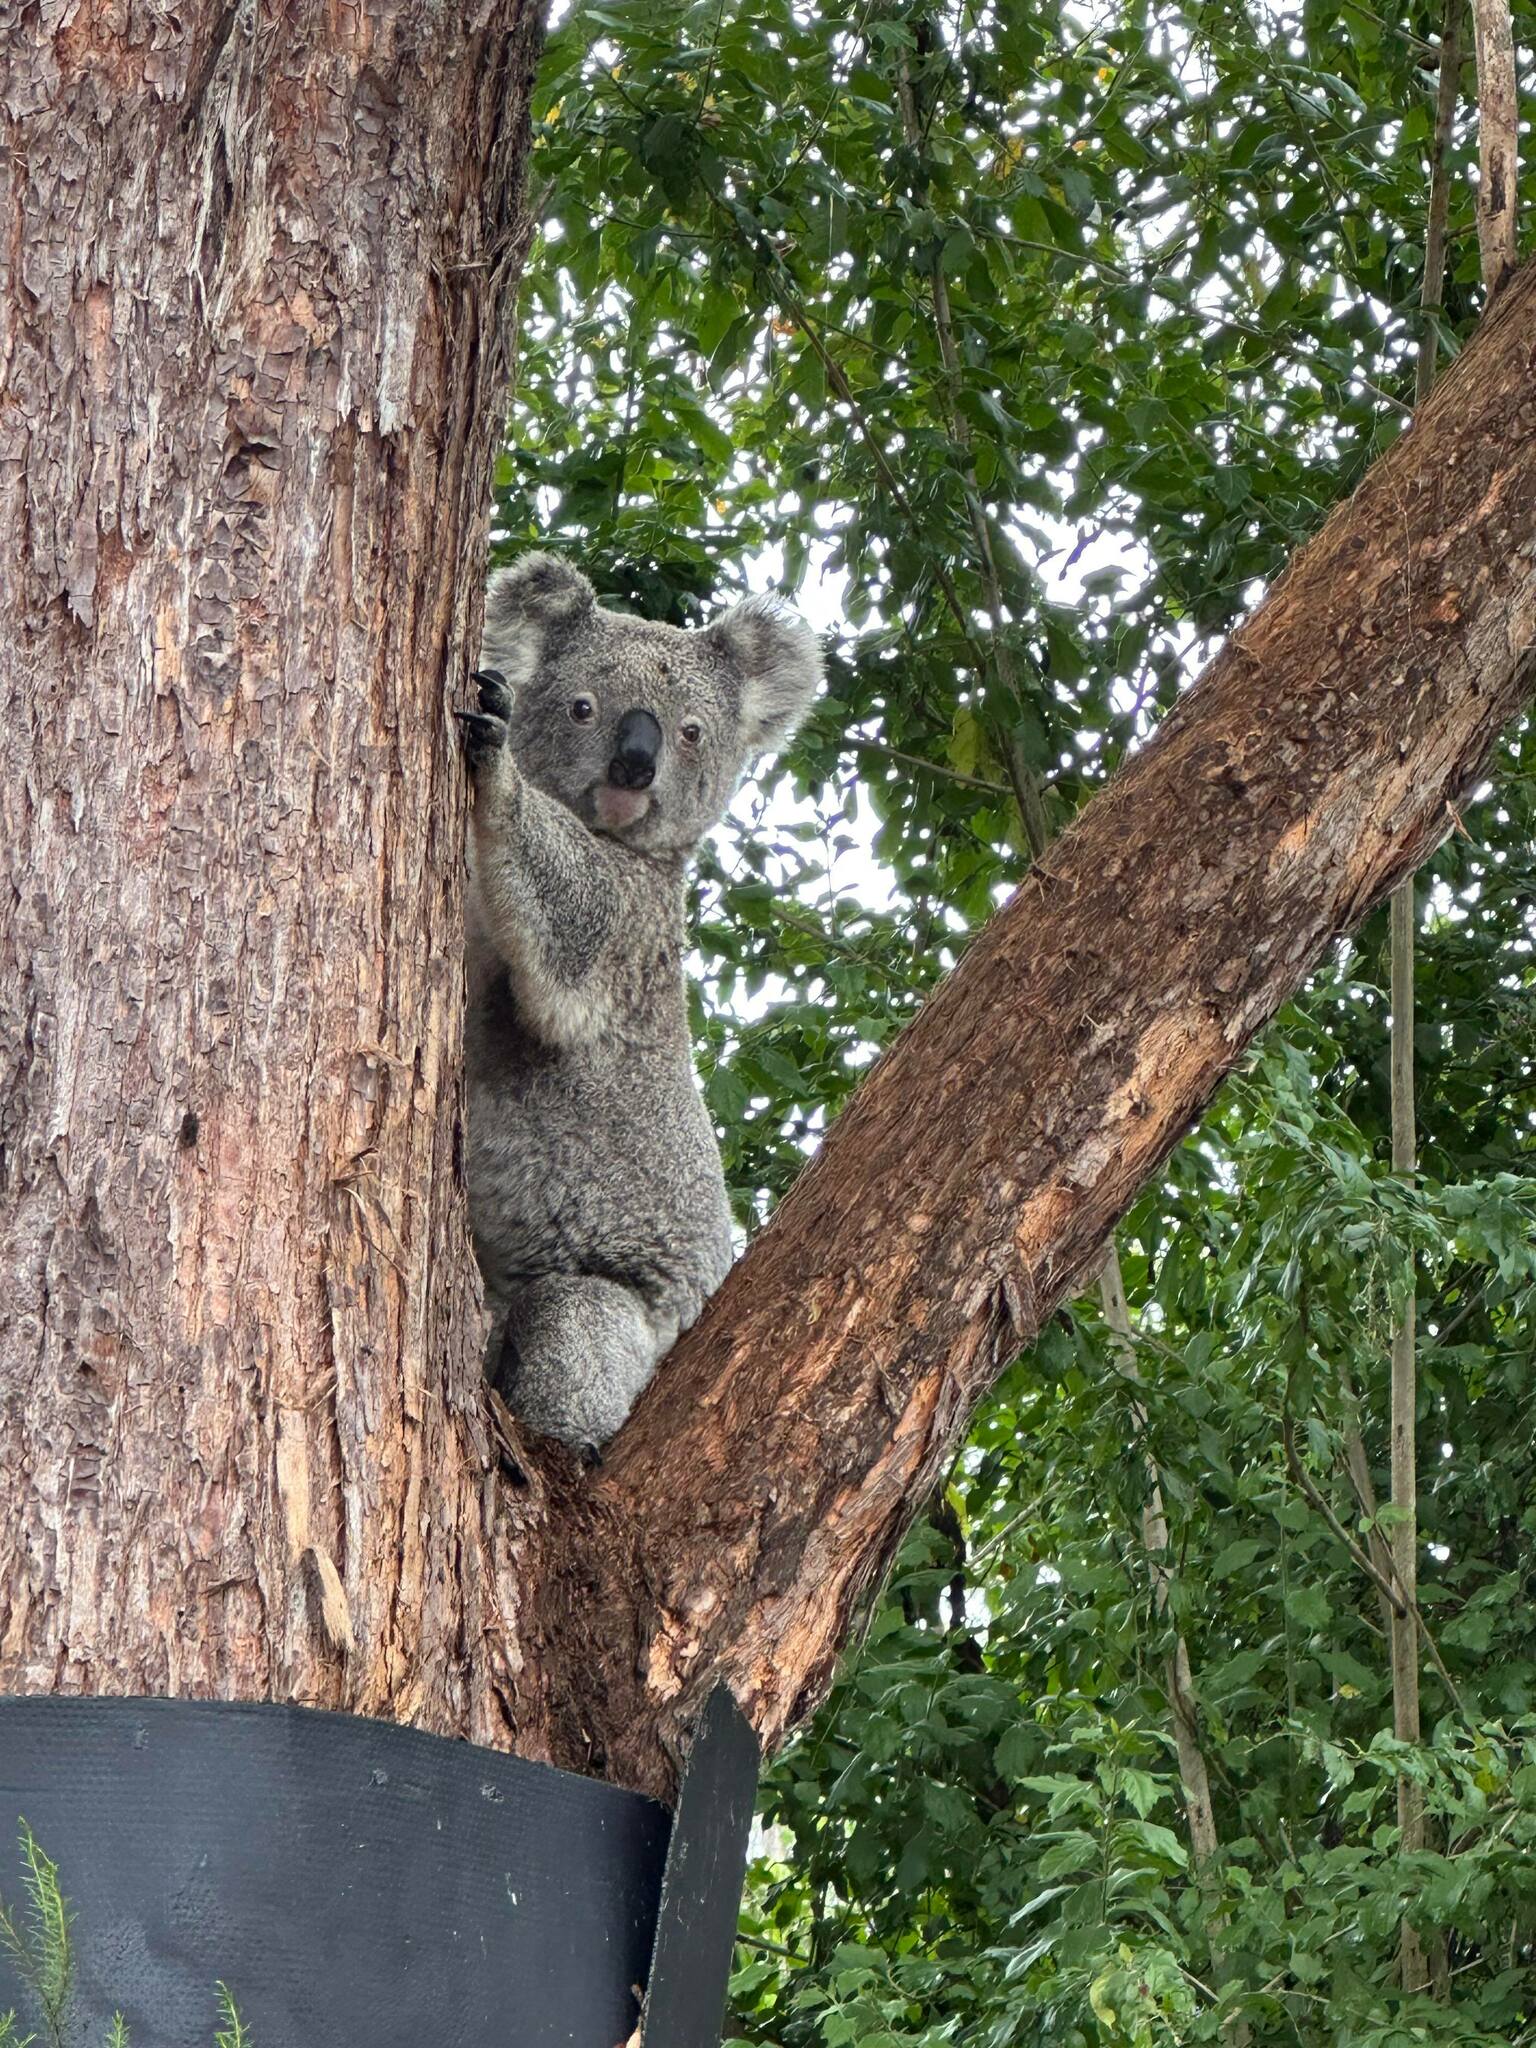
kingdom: Animalia
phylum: Chordata
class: Mammalia
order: Diprotodontia
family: Phascolarctidae
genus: Phascolarctos
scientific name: Phascolarctos cinereus
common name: Koala
